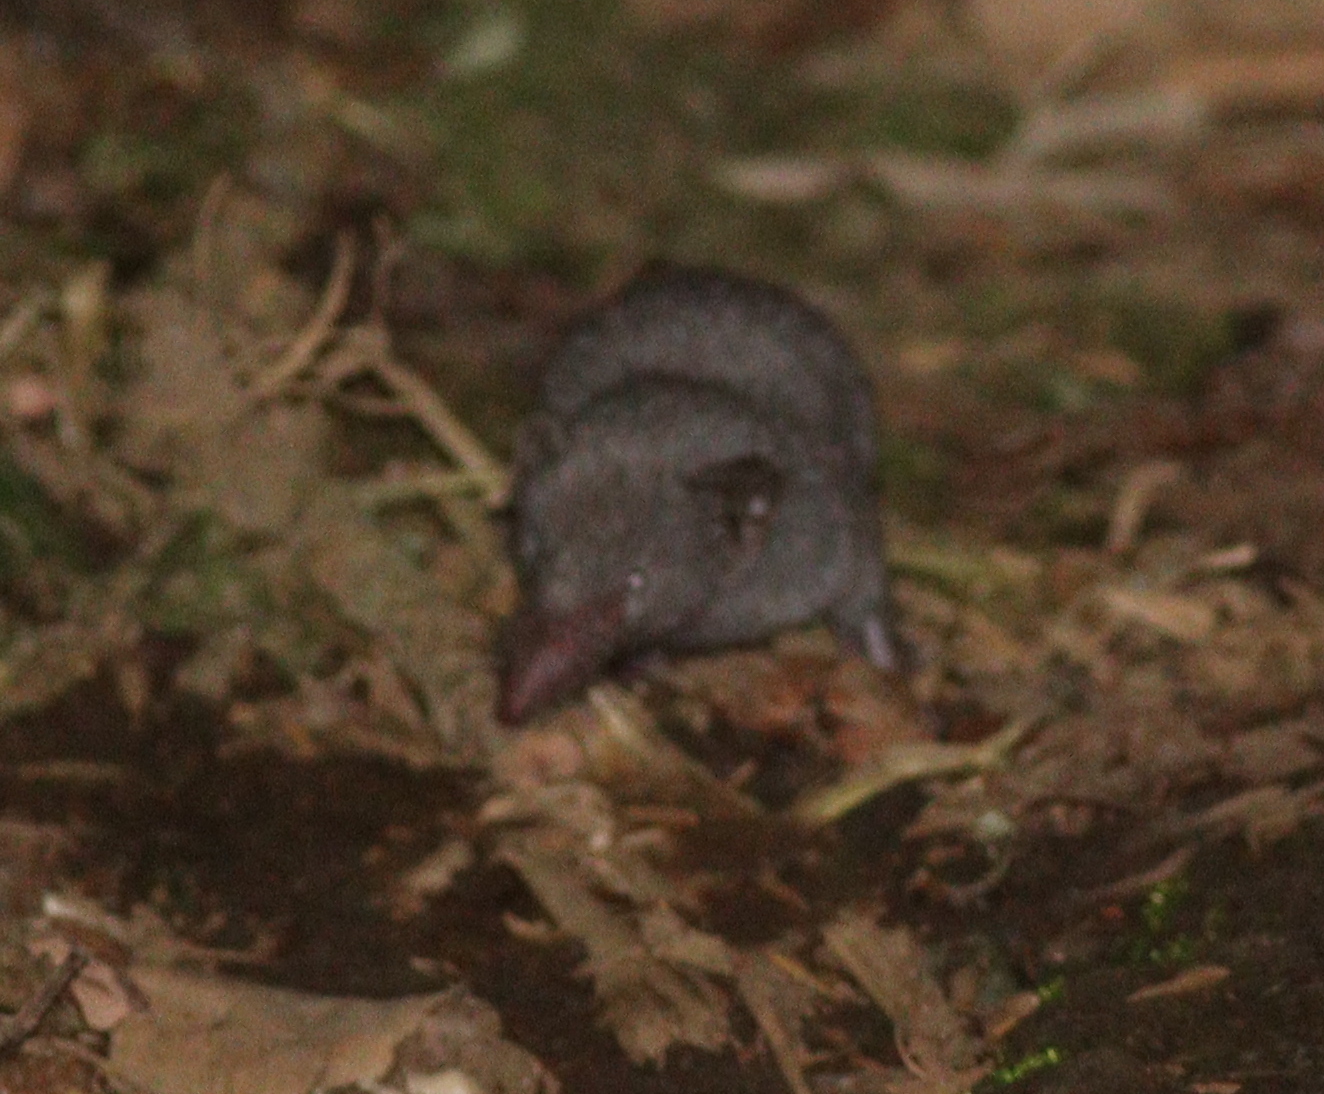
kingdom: Animalia
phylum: Chordata
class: Mammalia
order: Soricomorpha
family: Soricidae
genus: Suncus
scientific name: Suncus murinus
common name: Asian house shrew
